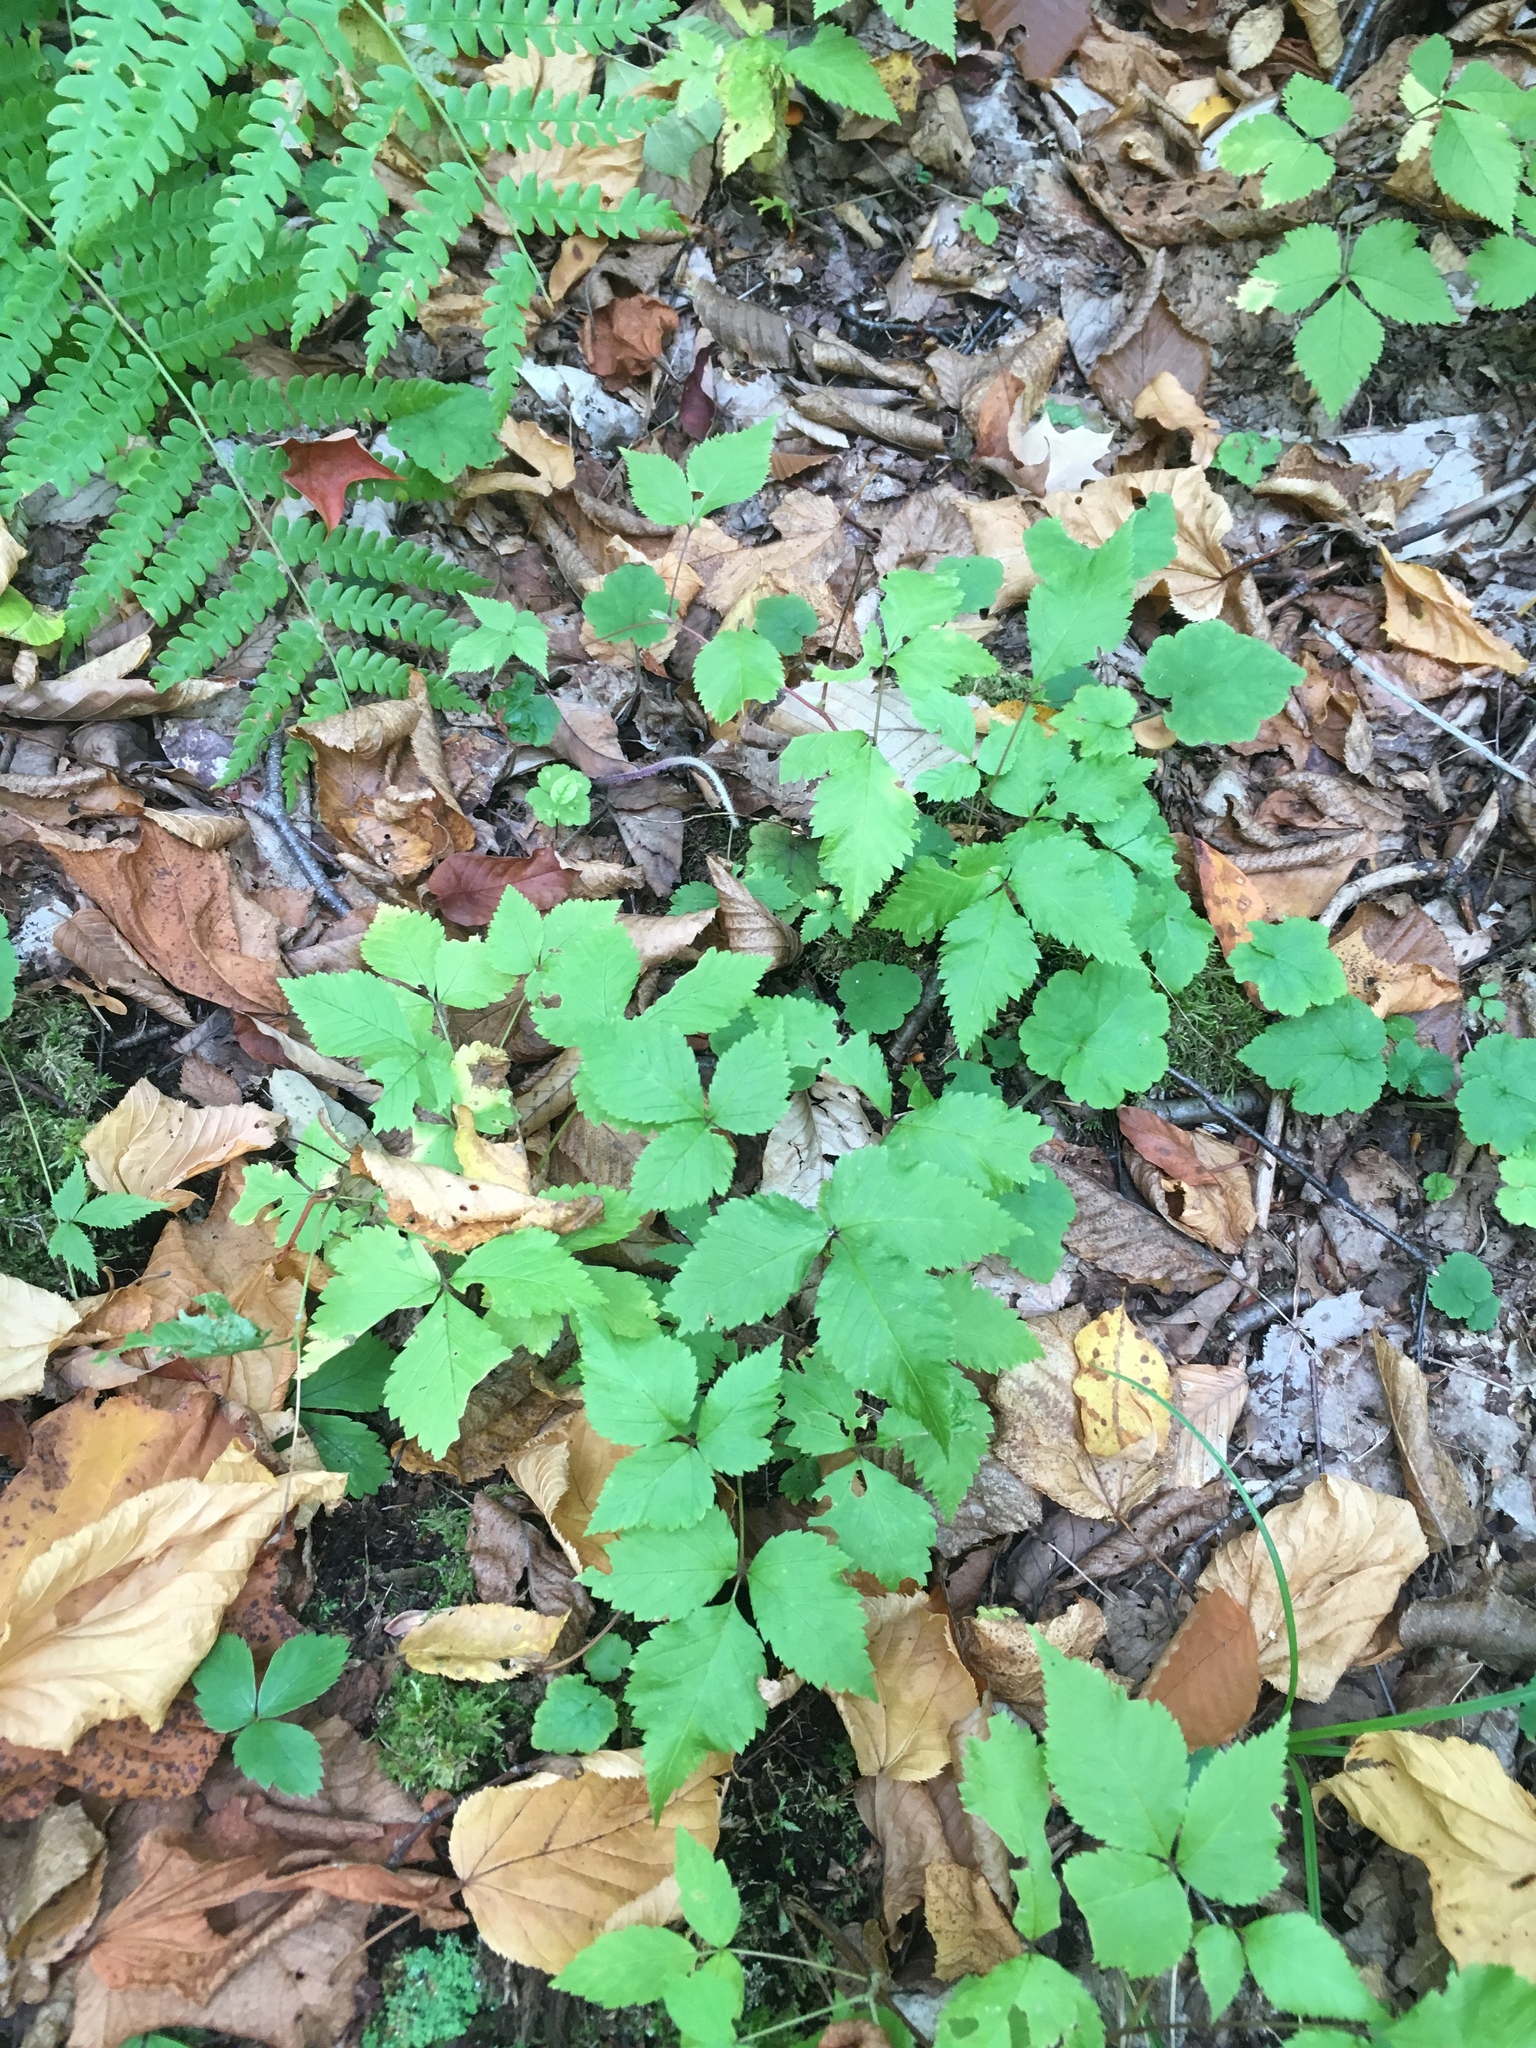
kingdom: Plantae
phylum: Tracheophyta
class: Magnoliopsida
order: Rosales
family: Rosaceae
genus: Rubus
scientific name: Rubus pubescens
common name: Dwarf raspberry
